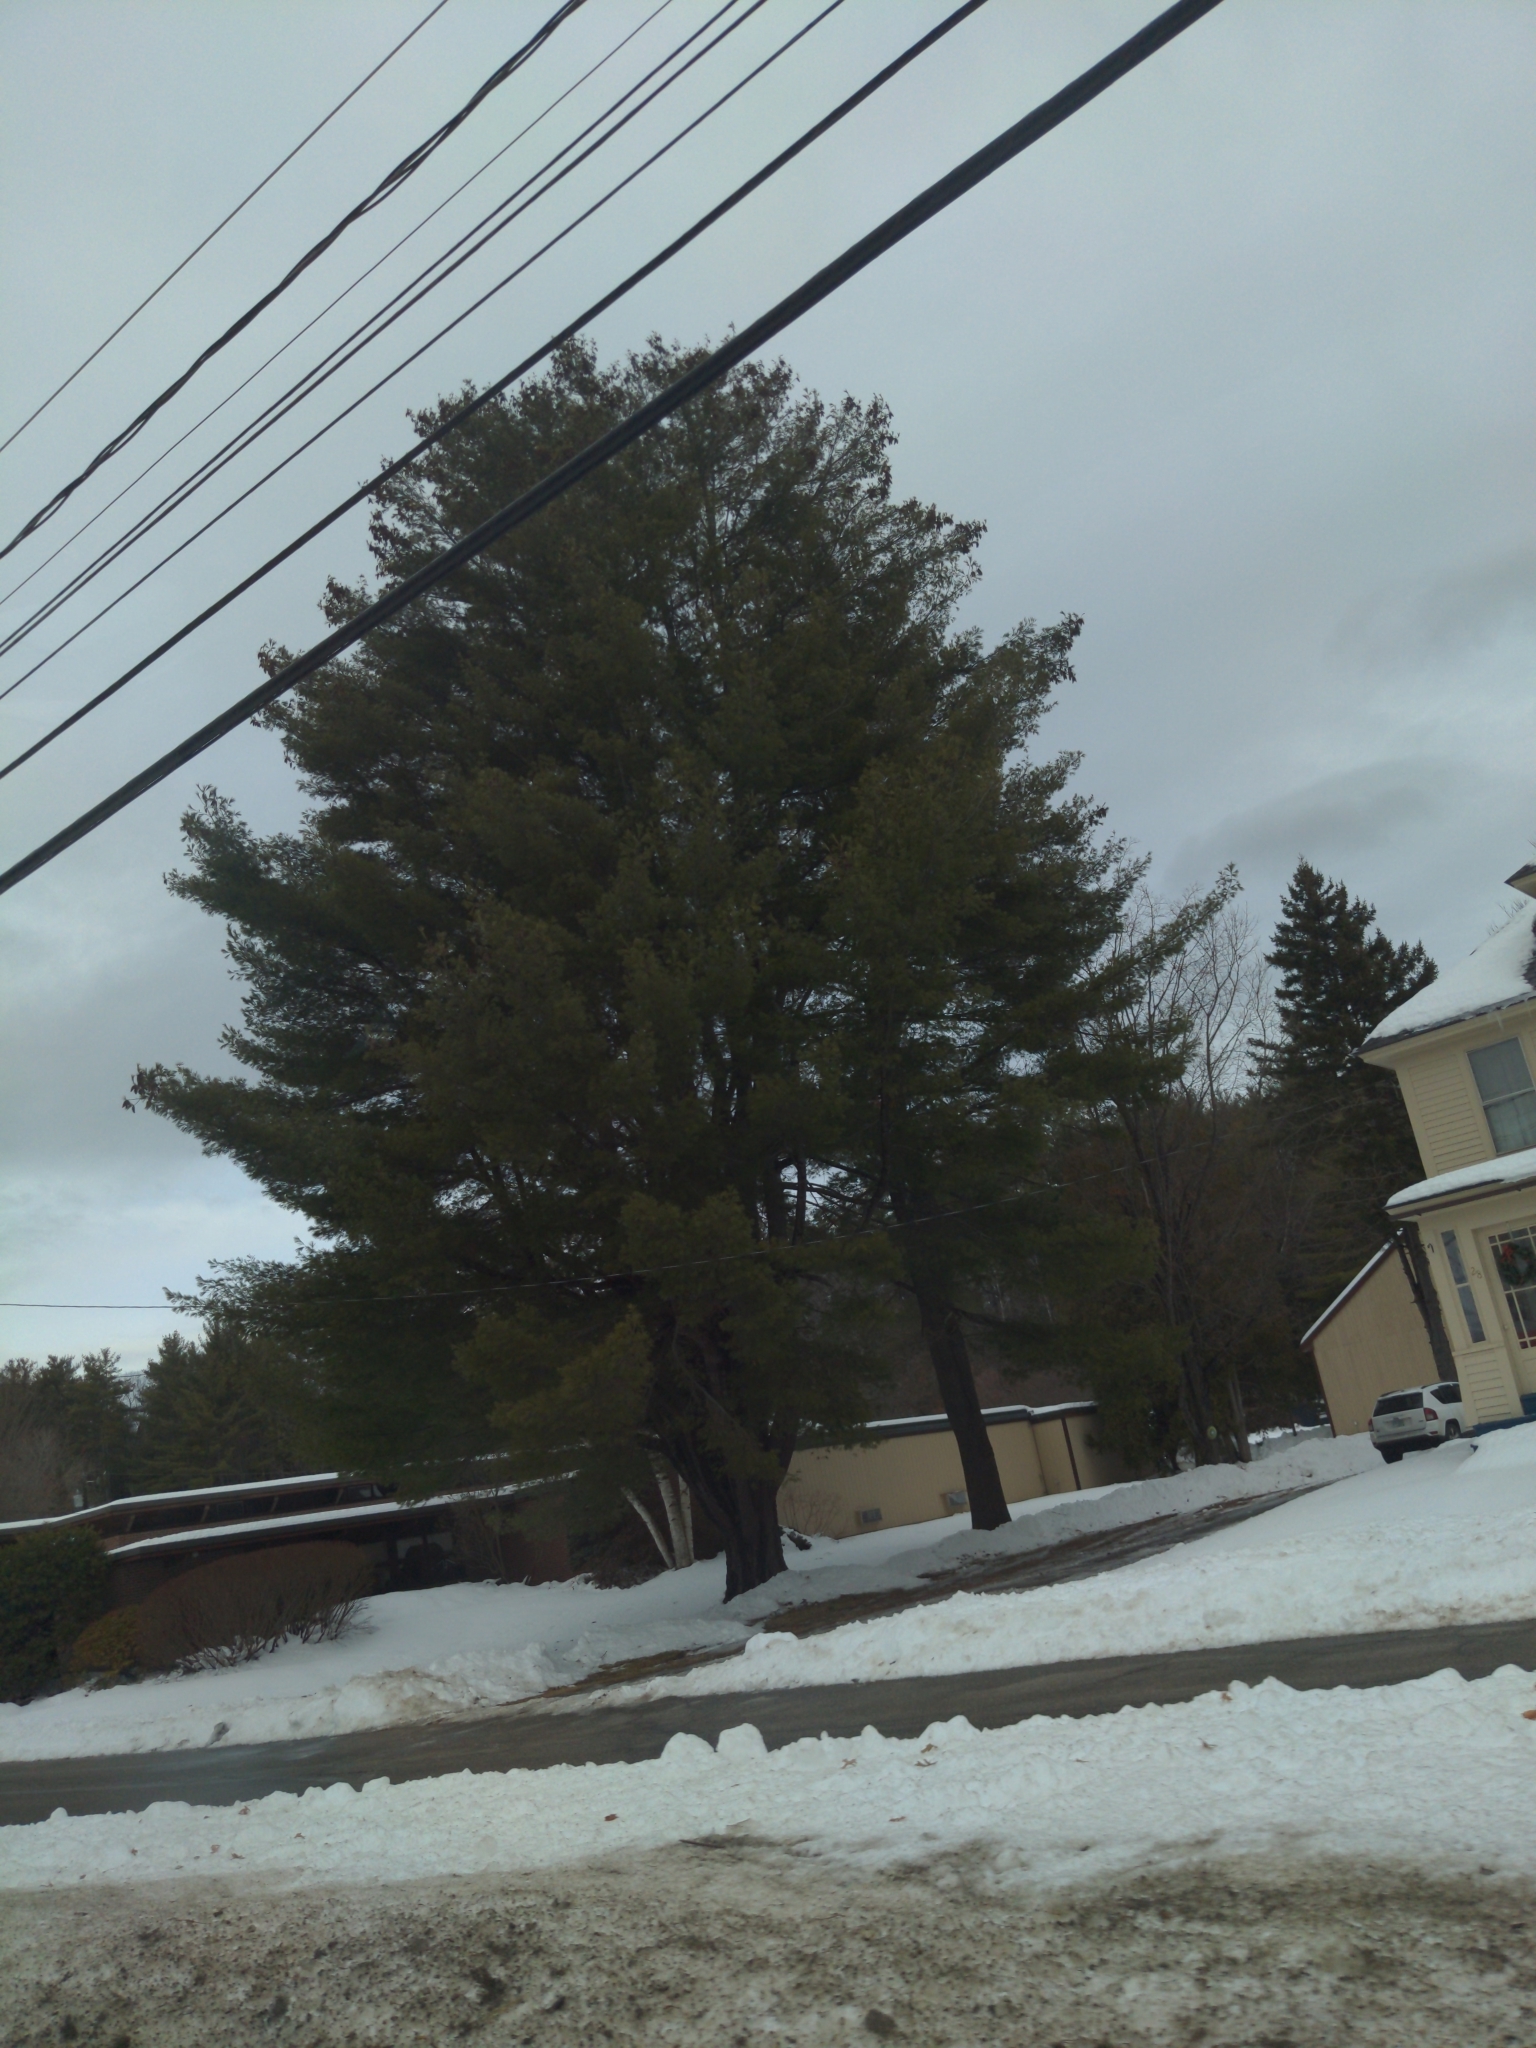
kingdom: Plantae
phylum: Tracheophyta
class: Pinopsida
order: Pinales
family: Pinaceae
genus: Pinus
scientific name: Pinus strobus
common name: Weymouth pine
